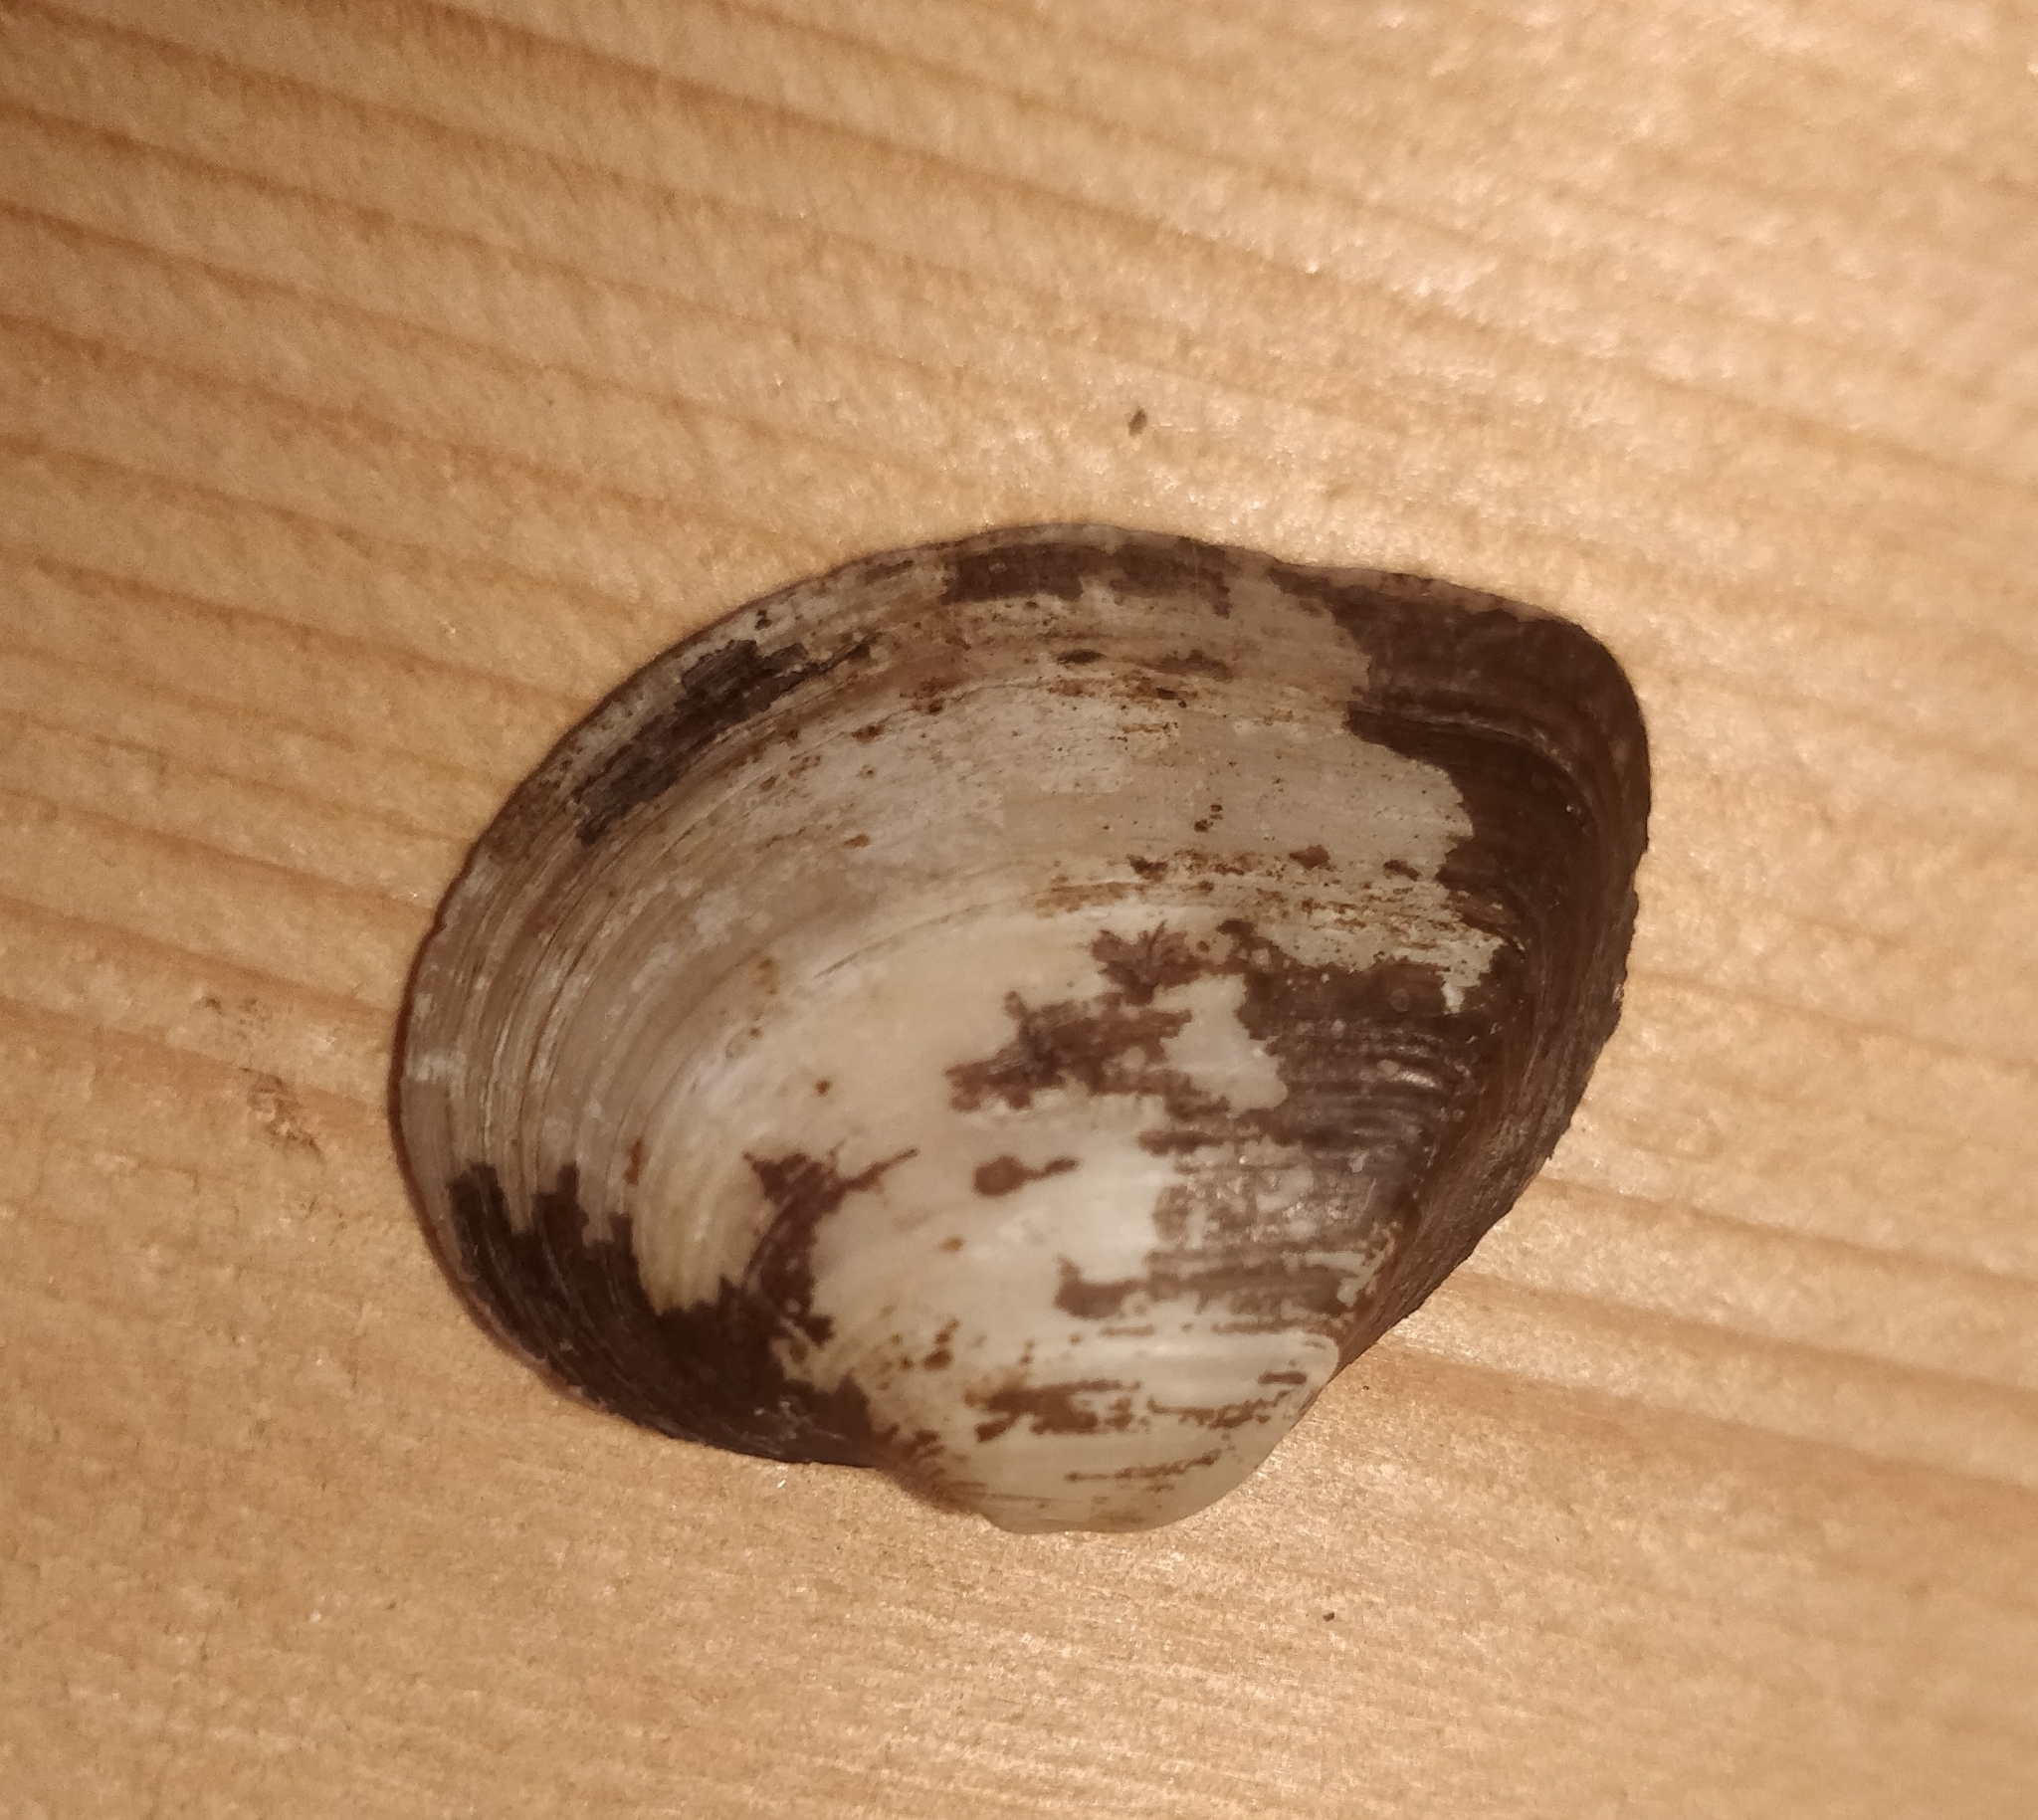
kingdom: Animalia
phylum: Mollusca
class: Bivalvia
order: Unionida
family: Unionidae
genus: Truncilla
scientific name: Truncilla truncata
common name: Deertoe
